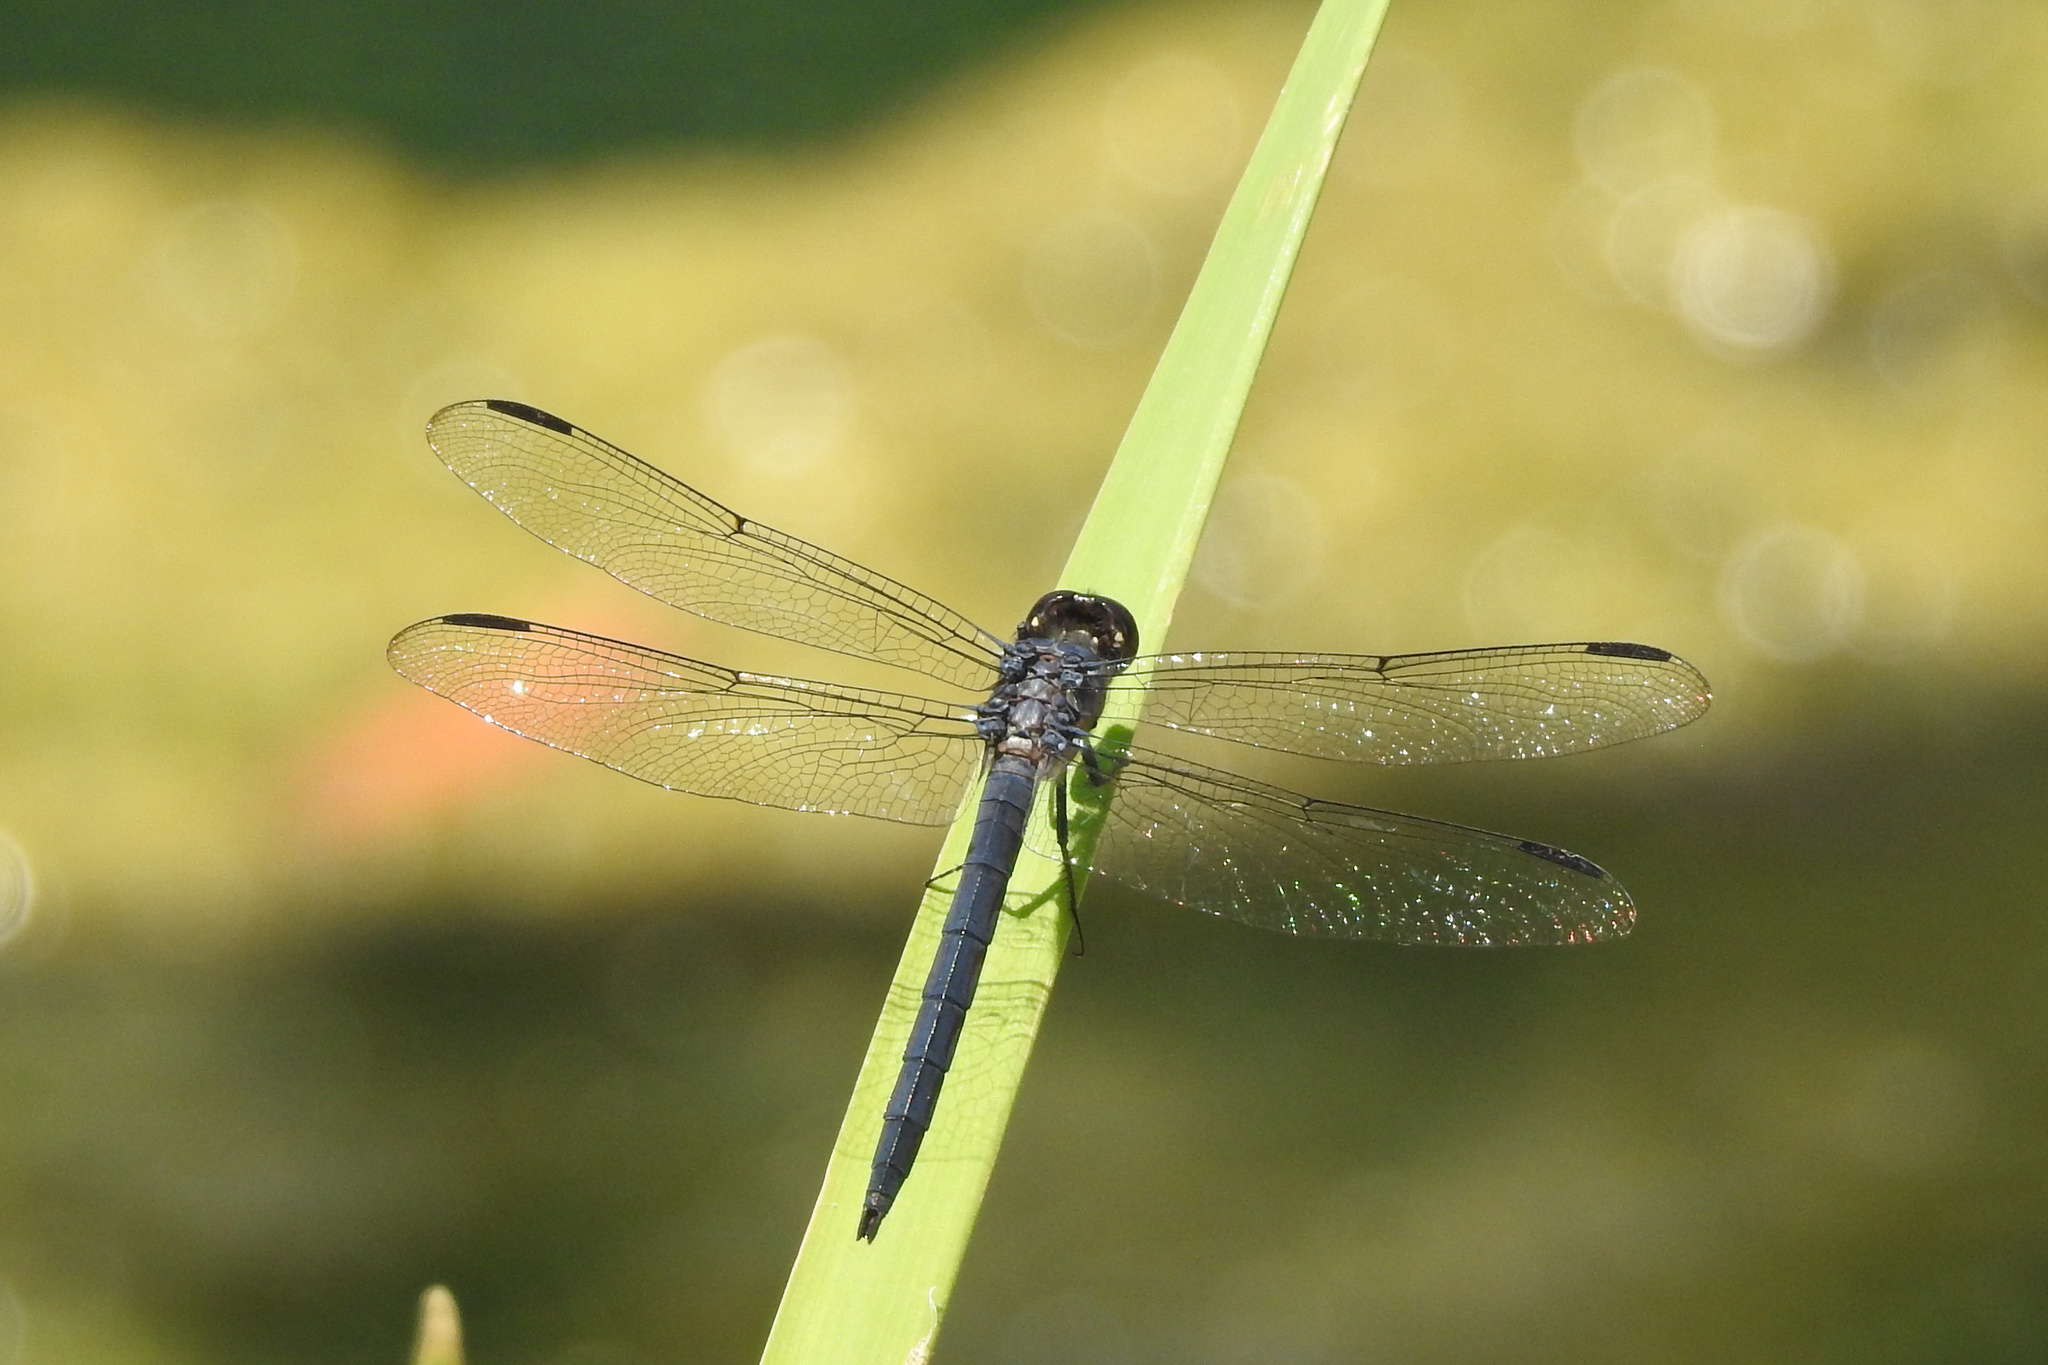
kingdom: Animalia
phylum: Arthropoda
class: Insecta
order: Odonata
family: Libellulidae
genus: Libellula
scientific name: Libellula incesta
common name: Slaty skimmer
